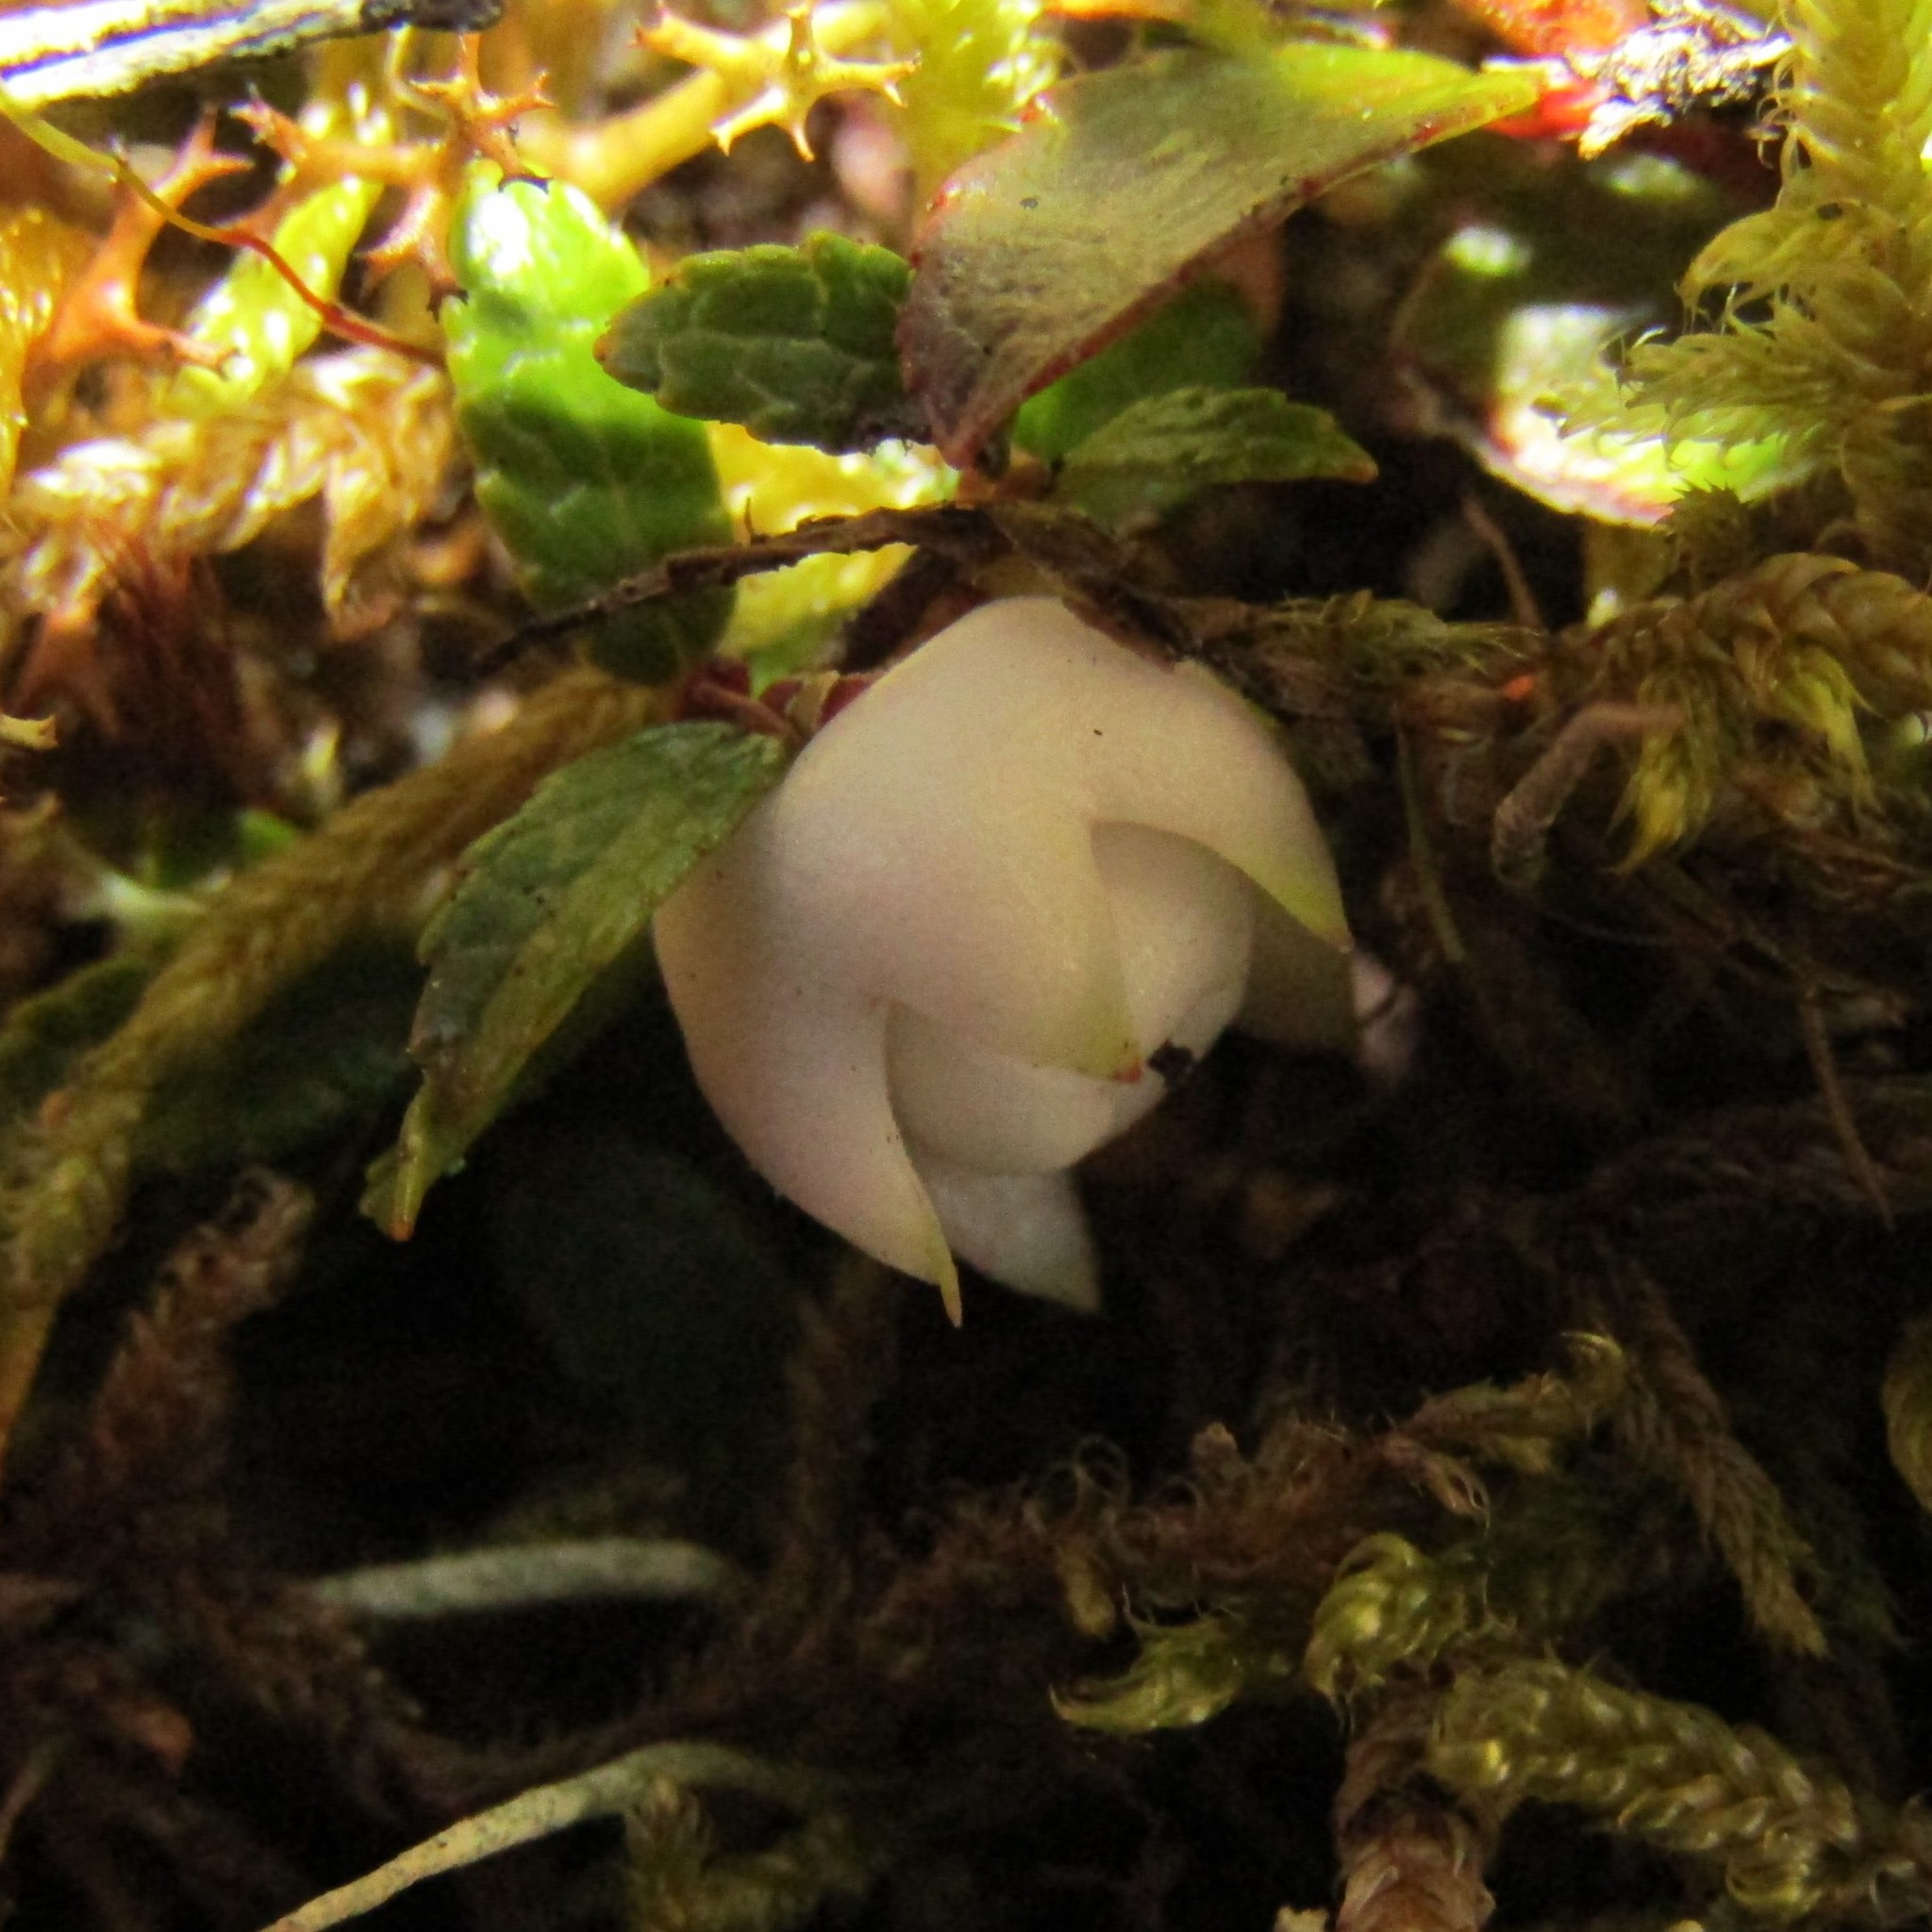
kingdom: Plantae
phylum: Tracheophyta
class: Magnoliopsida
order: Ericales
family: Ericaceae
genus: Gaultheria
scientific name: Gaultheria macrostigma
